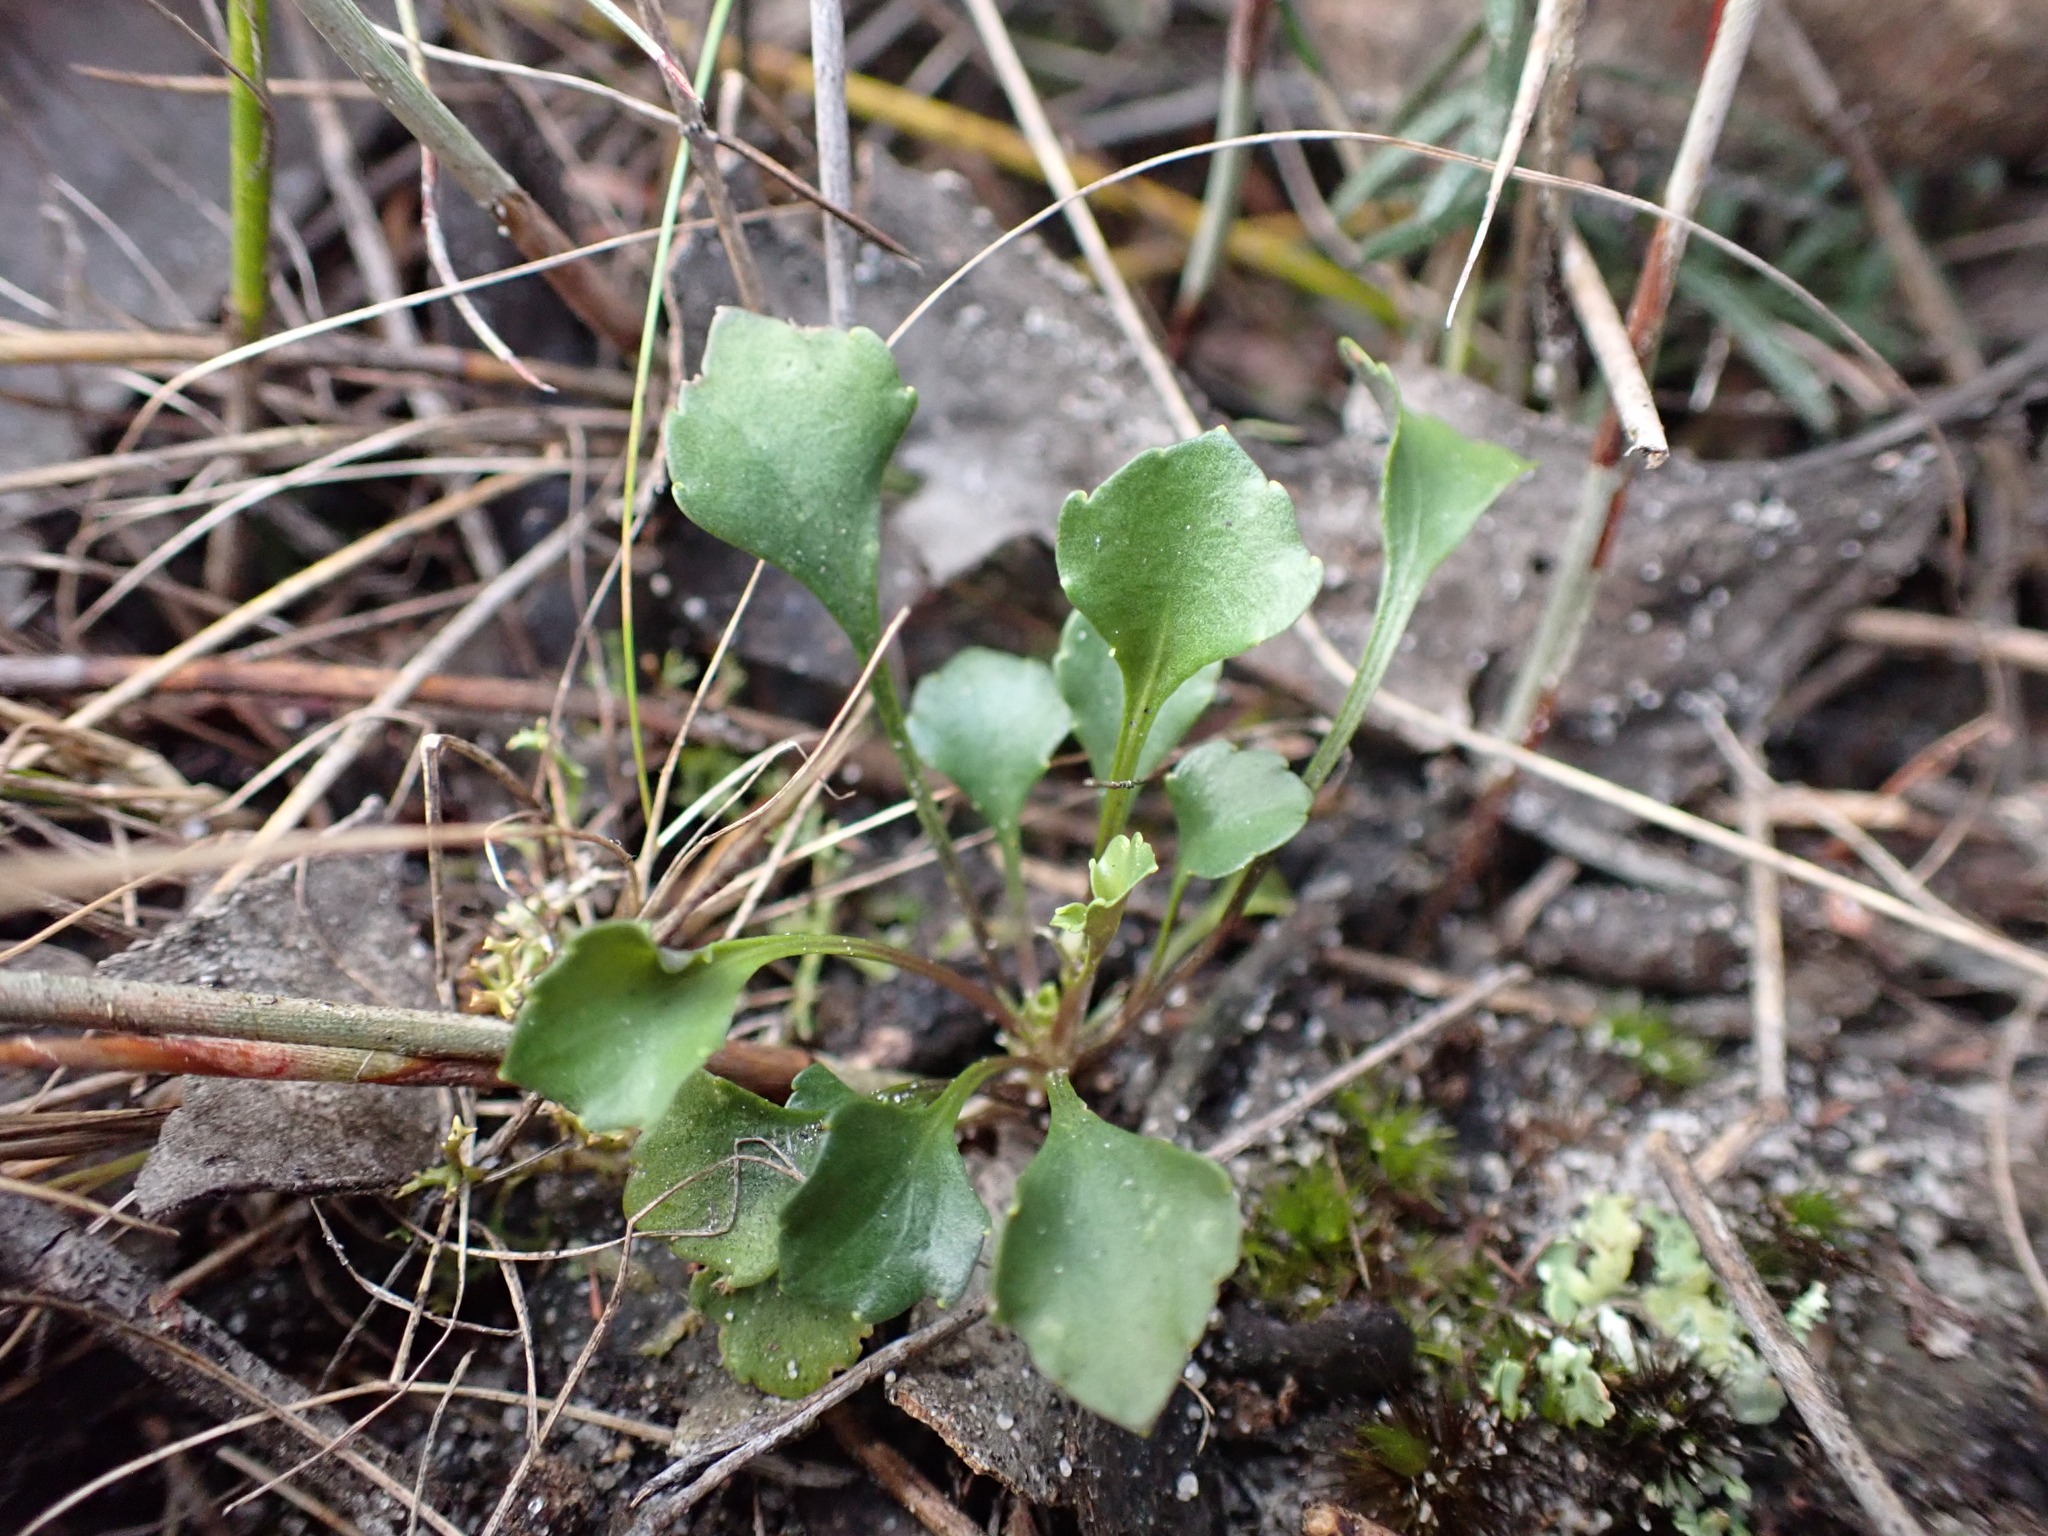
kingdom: Plantae
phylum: Tracheophyta
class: Magnoliopsida
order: Malpighiales
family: Violaceae
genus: Viola
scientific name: Viola cleistogamoides
